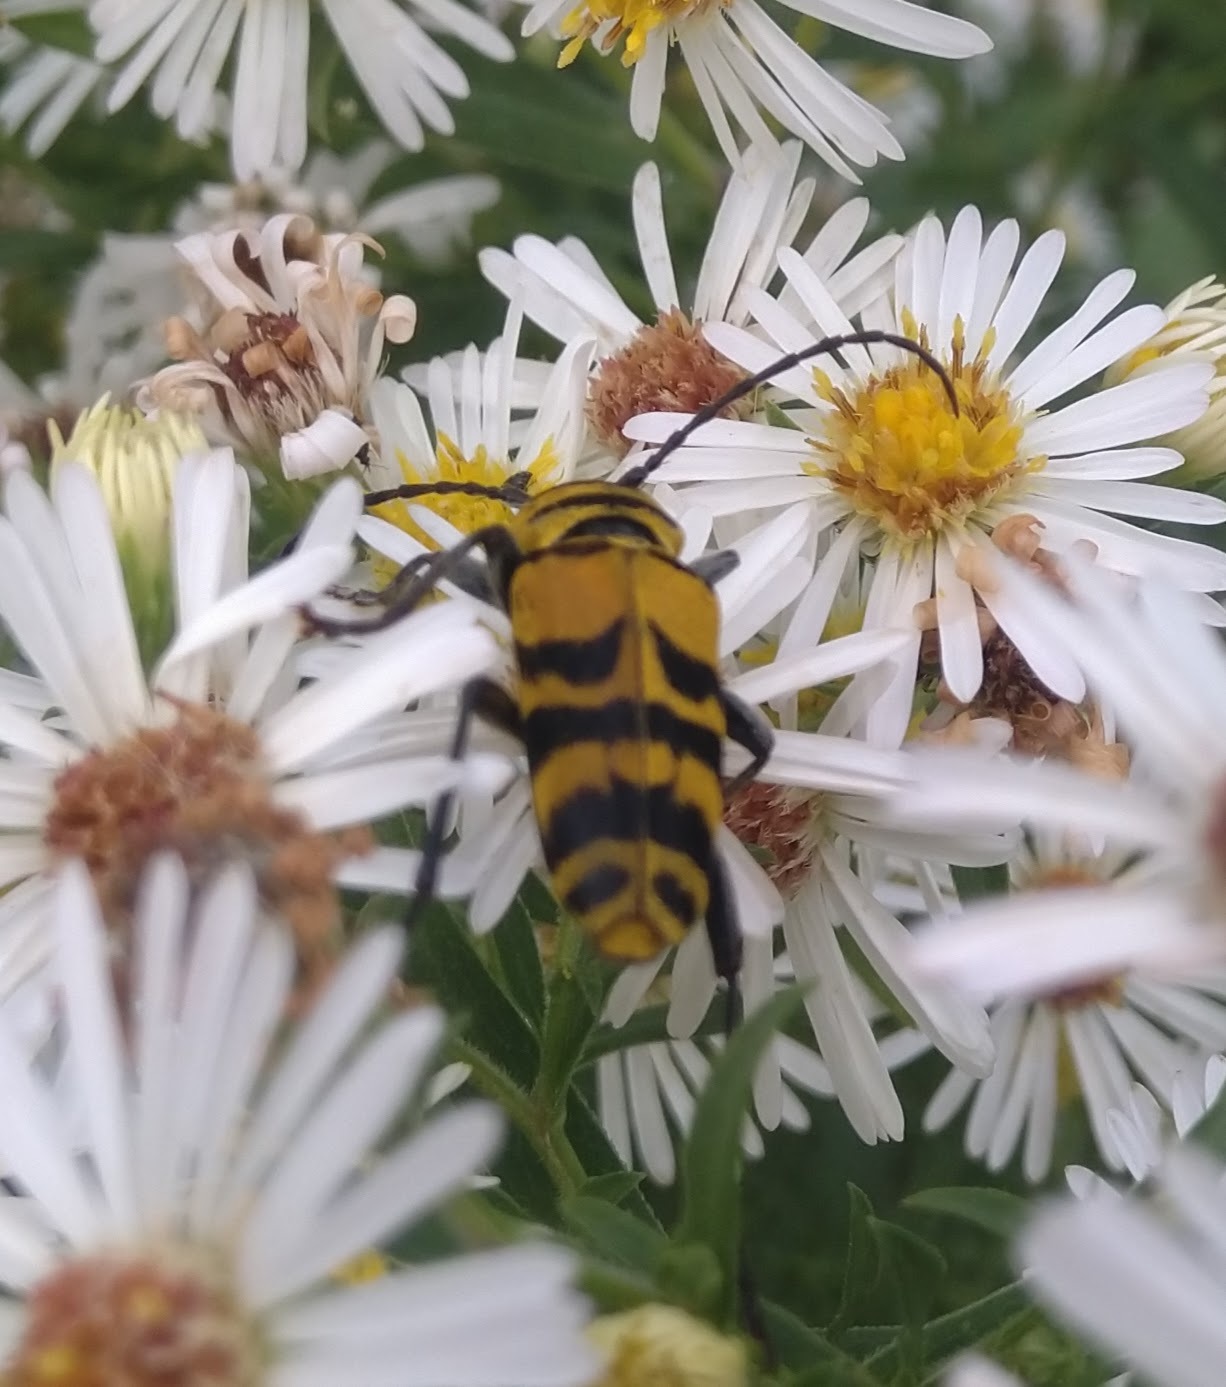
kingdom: Animalia
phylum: Arthropoda
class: Insecta
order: Coleoptera
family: Cerambycidae
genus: Megacyllene
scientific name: Megacyllene decora
